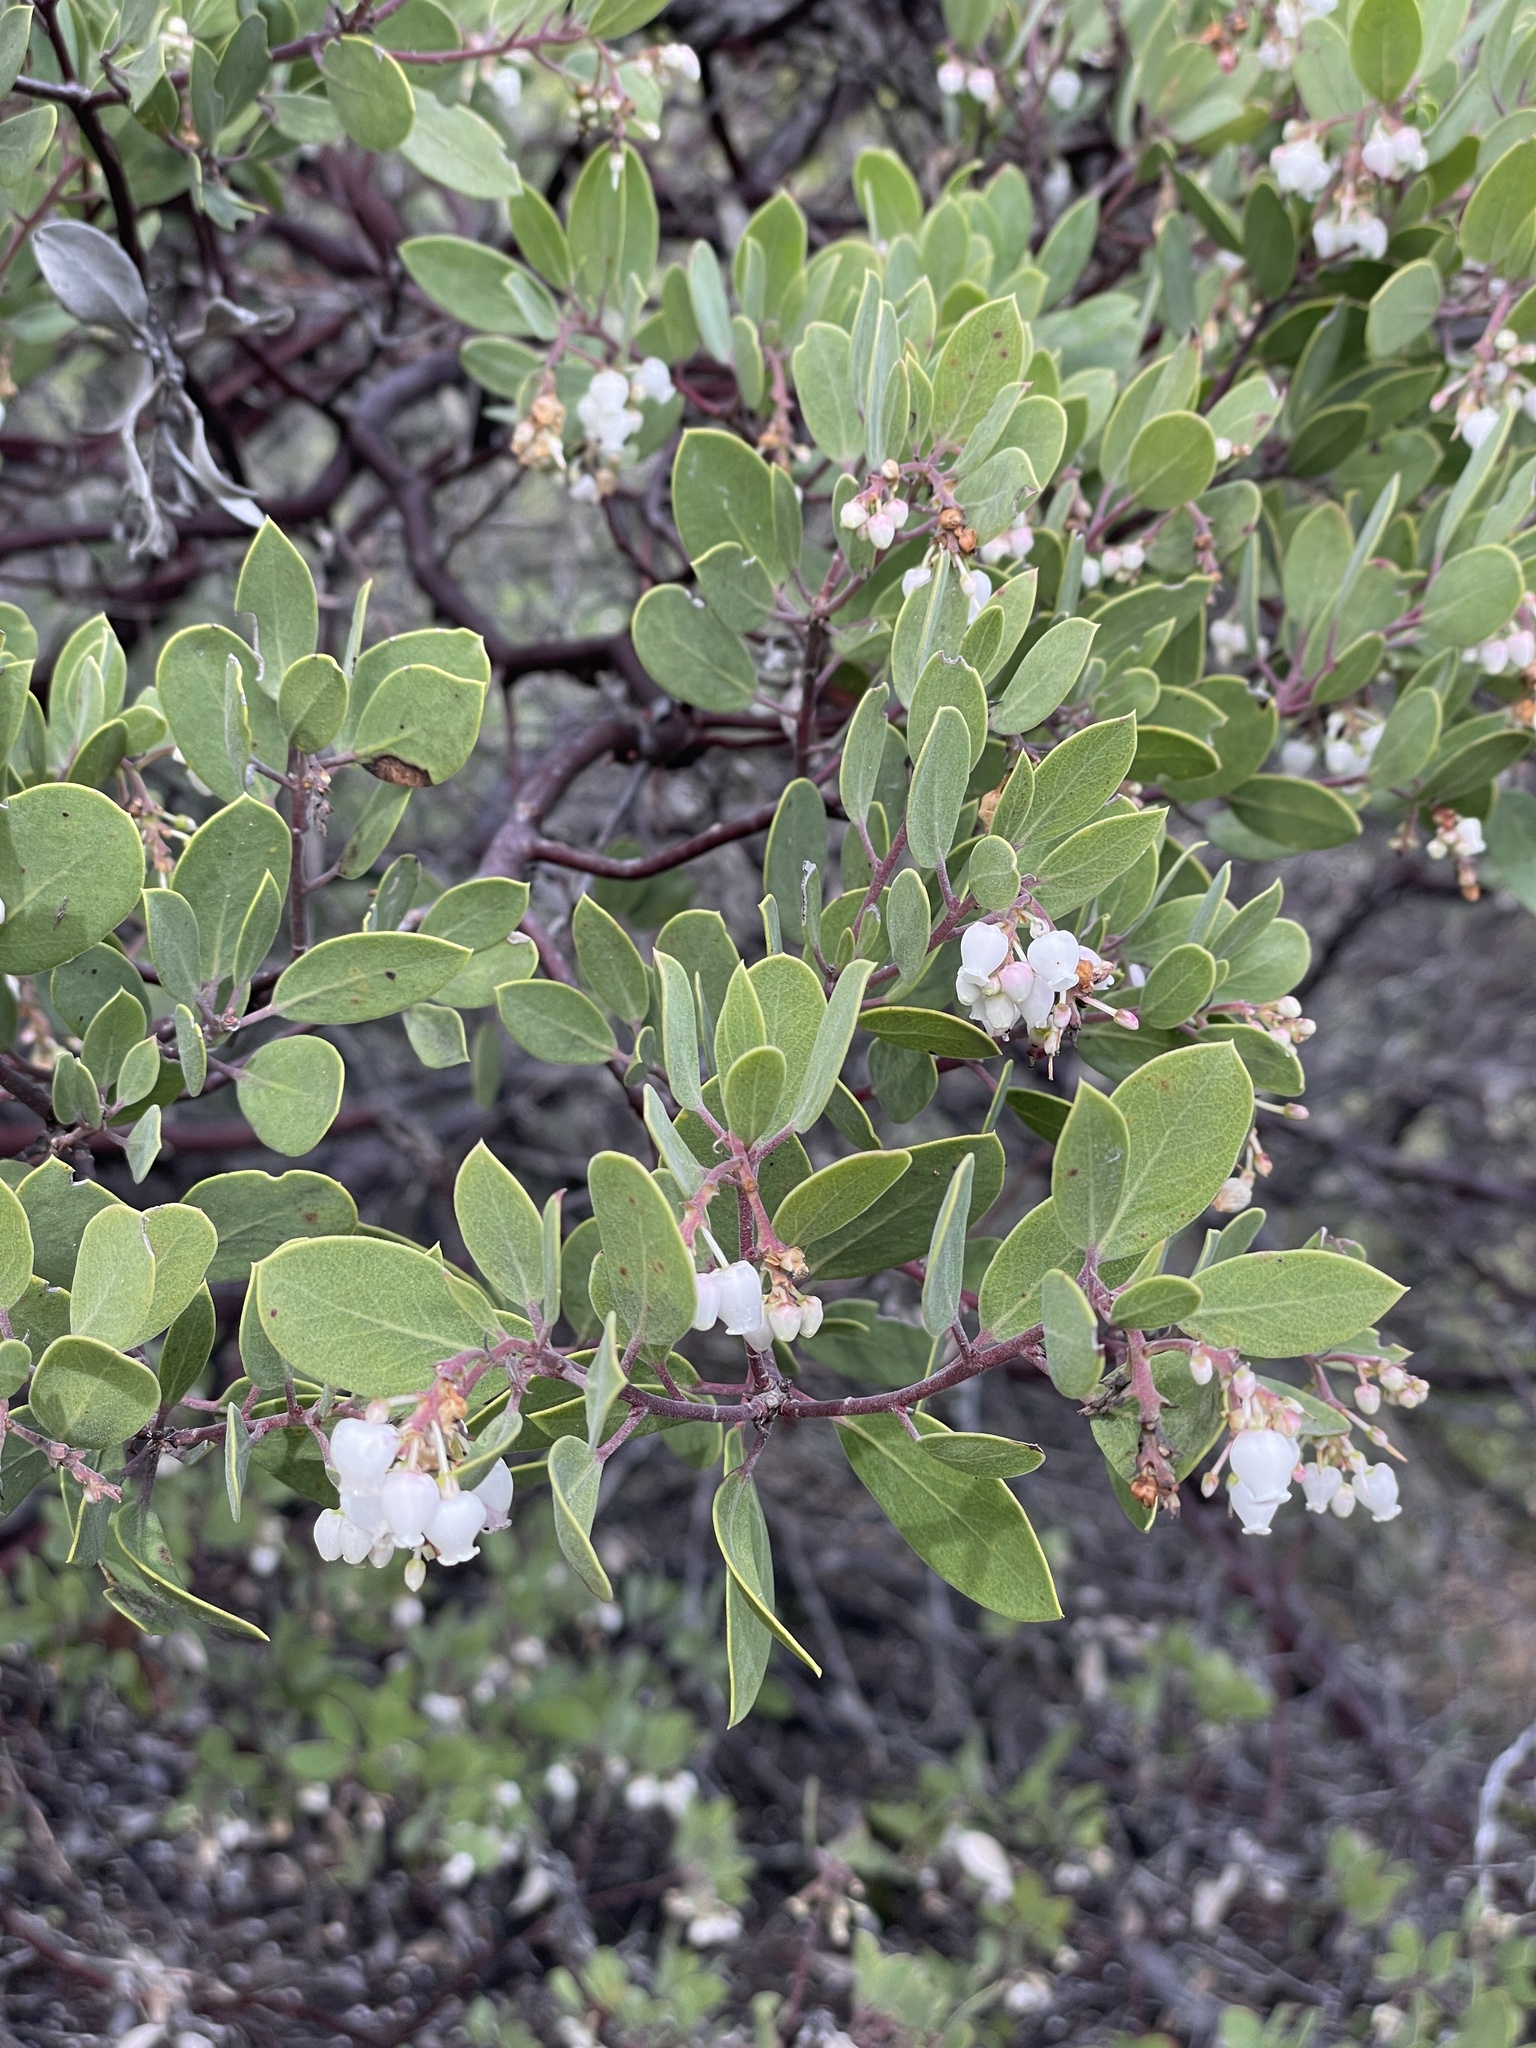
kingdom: Plantae
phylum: Tracheophyta
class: Magnoliopsida
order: Ericales
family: Ericaceae
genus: Arctostaphylos
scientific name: Arctostaphylos bakeri
